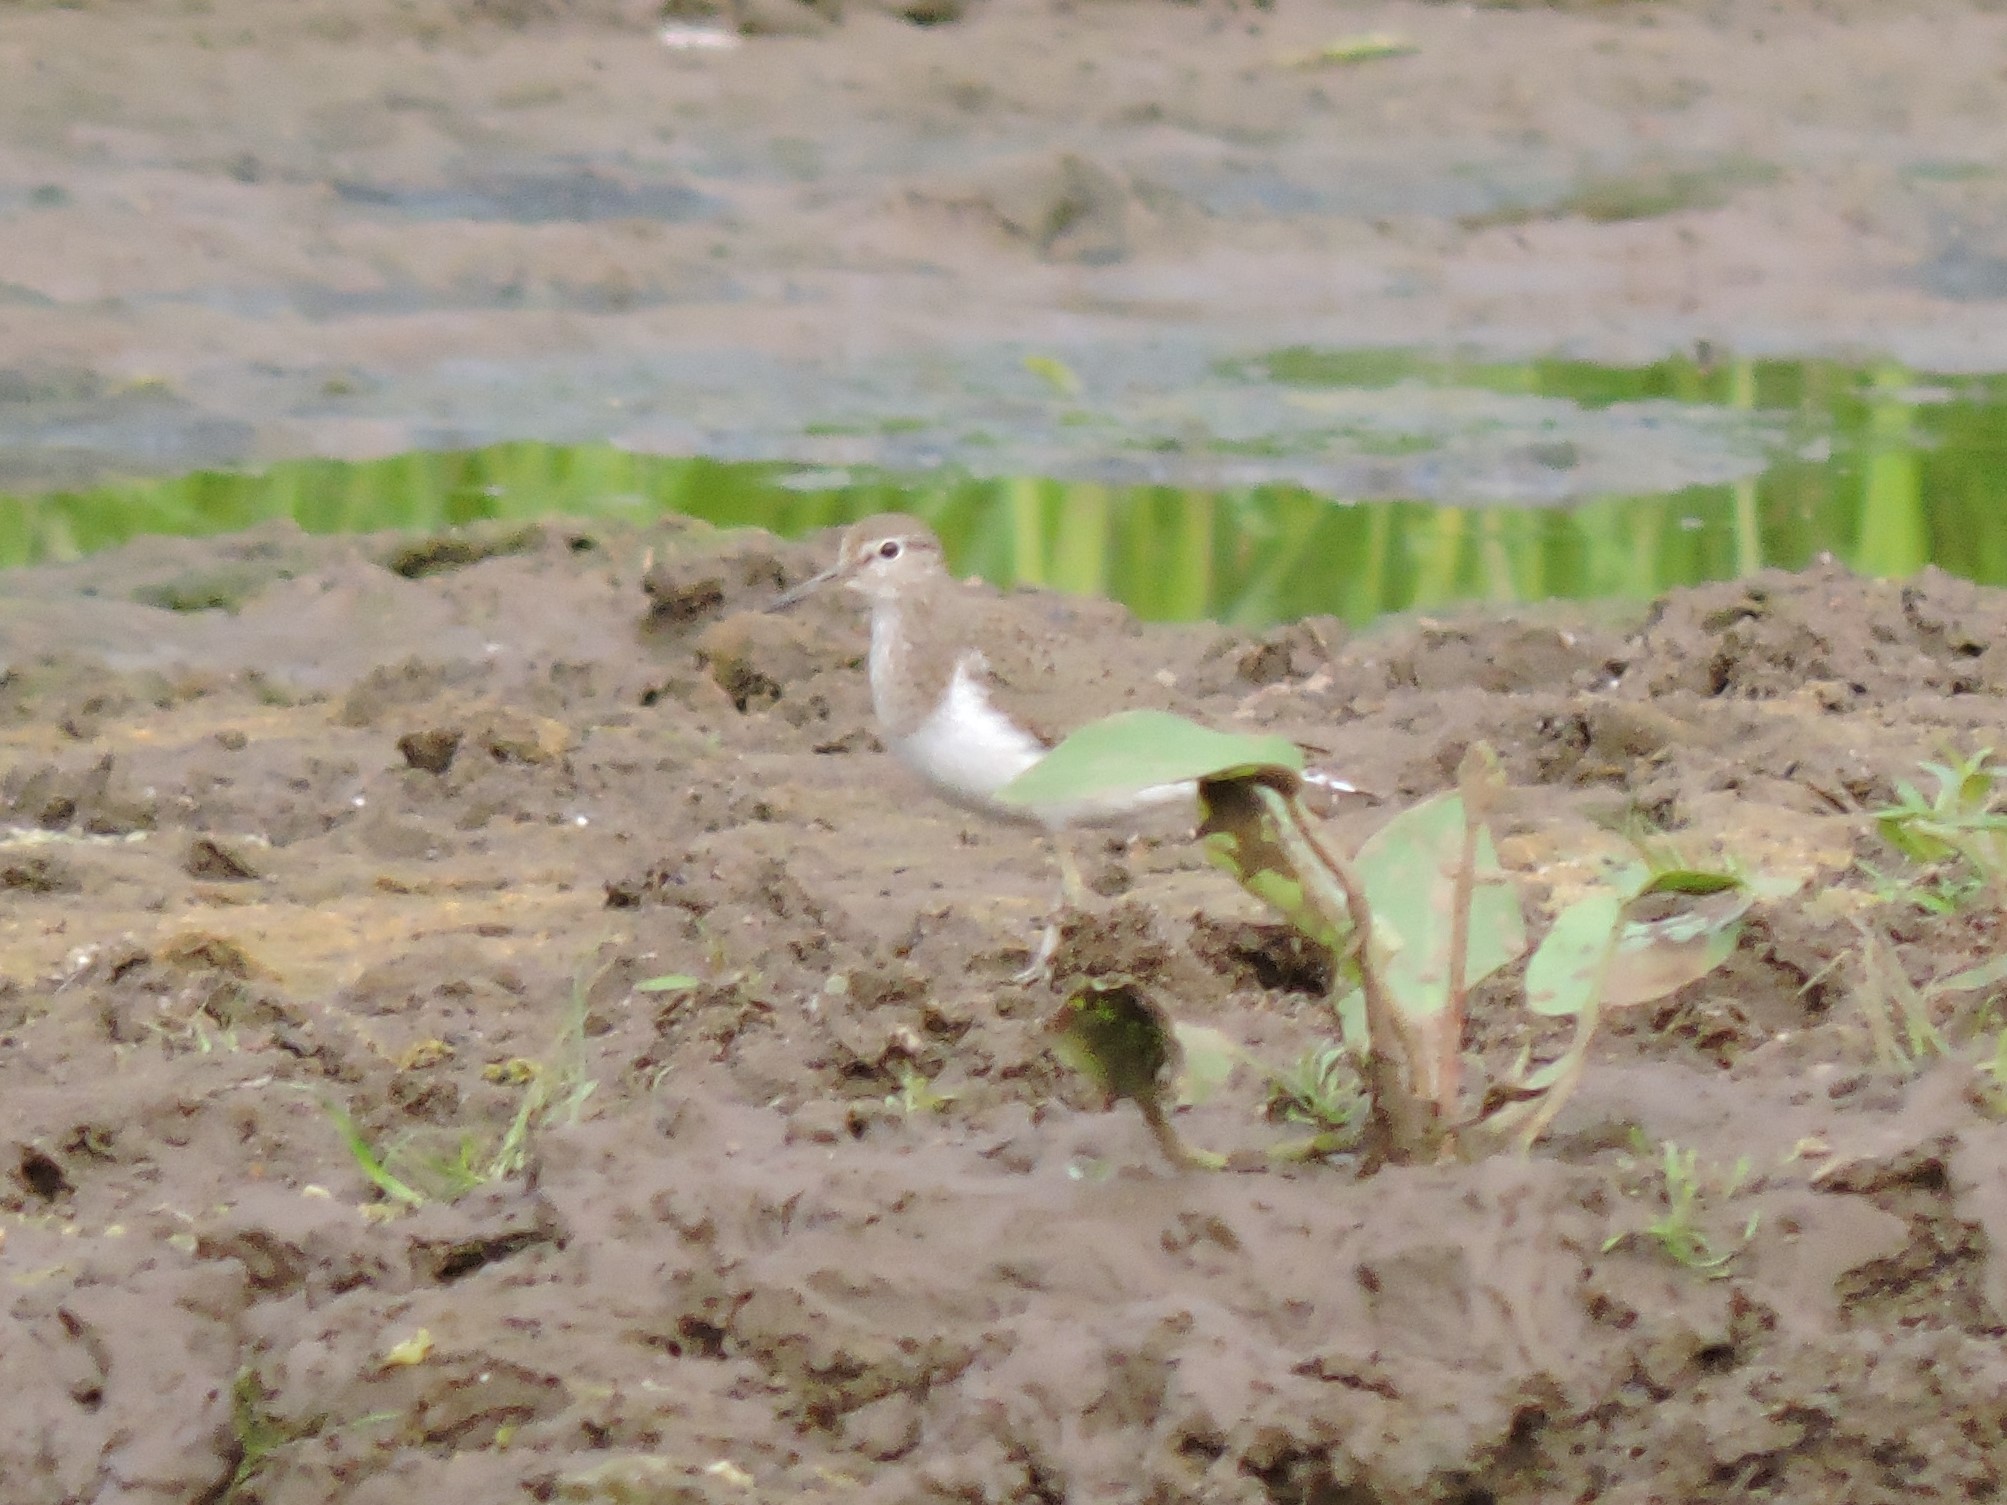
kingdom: Animalia
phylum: Chordata
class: Aves
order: Charadriiformes
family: Scolopacidae
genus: Actitis
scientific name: Actitis hypoleucos
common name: Common sandpiper
